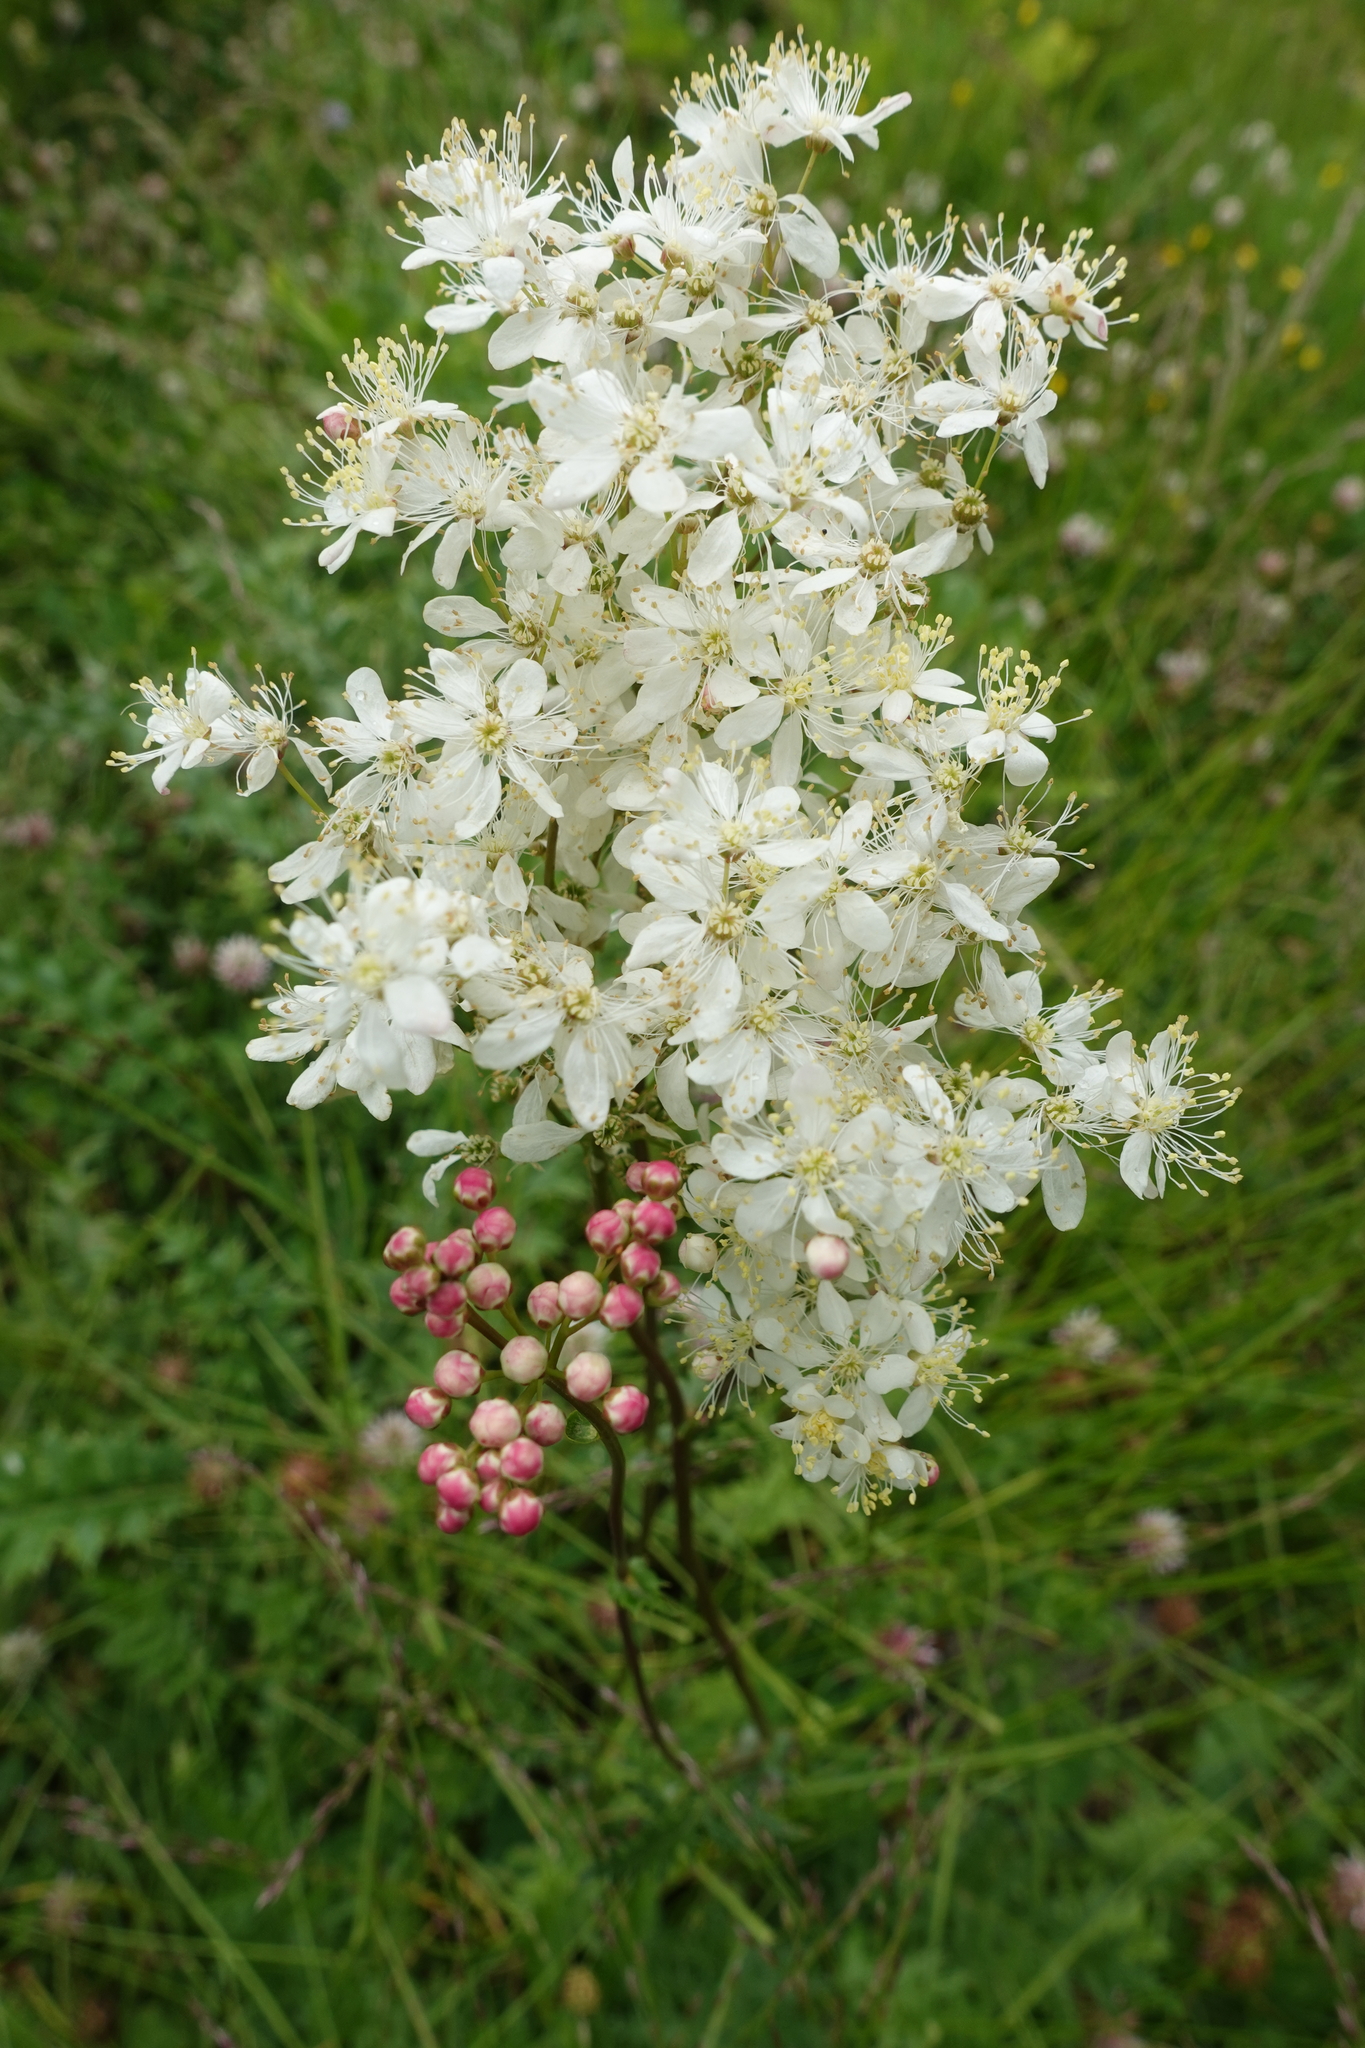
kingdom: Plantae
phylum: Tracheophyta
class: Magnoliopsida
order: Rosales
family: Rosaceae
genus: Filipendula
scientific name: Filipendula vulgaris
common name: Dropwort
